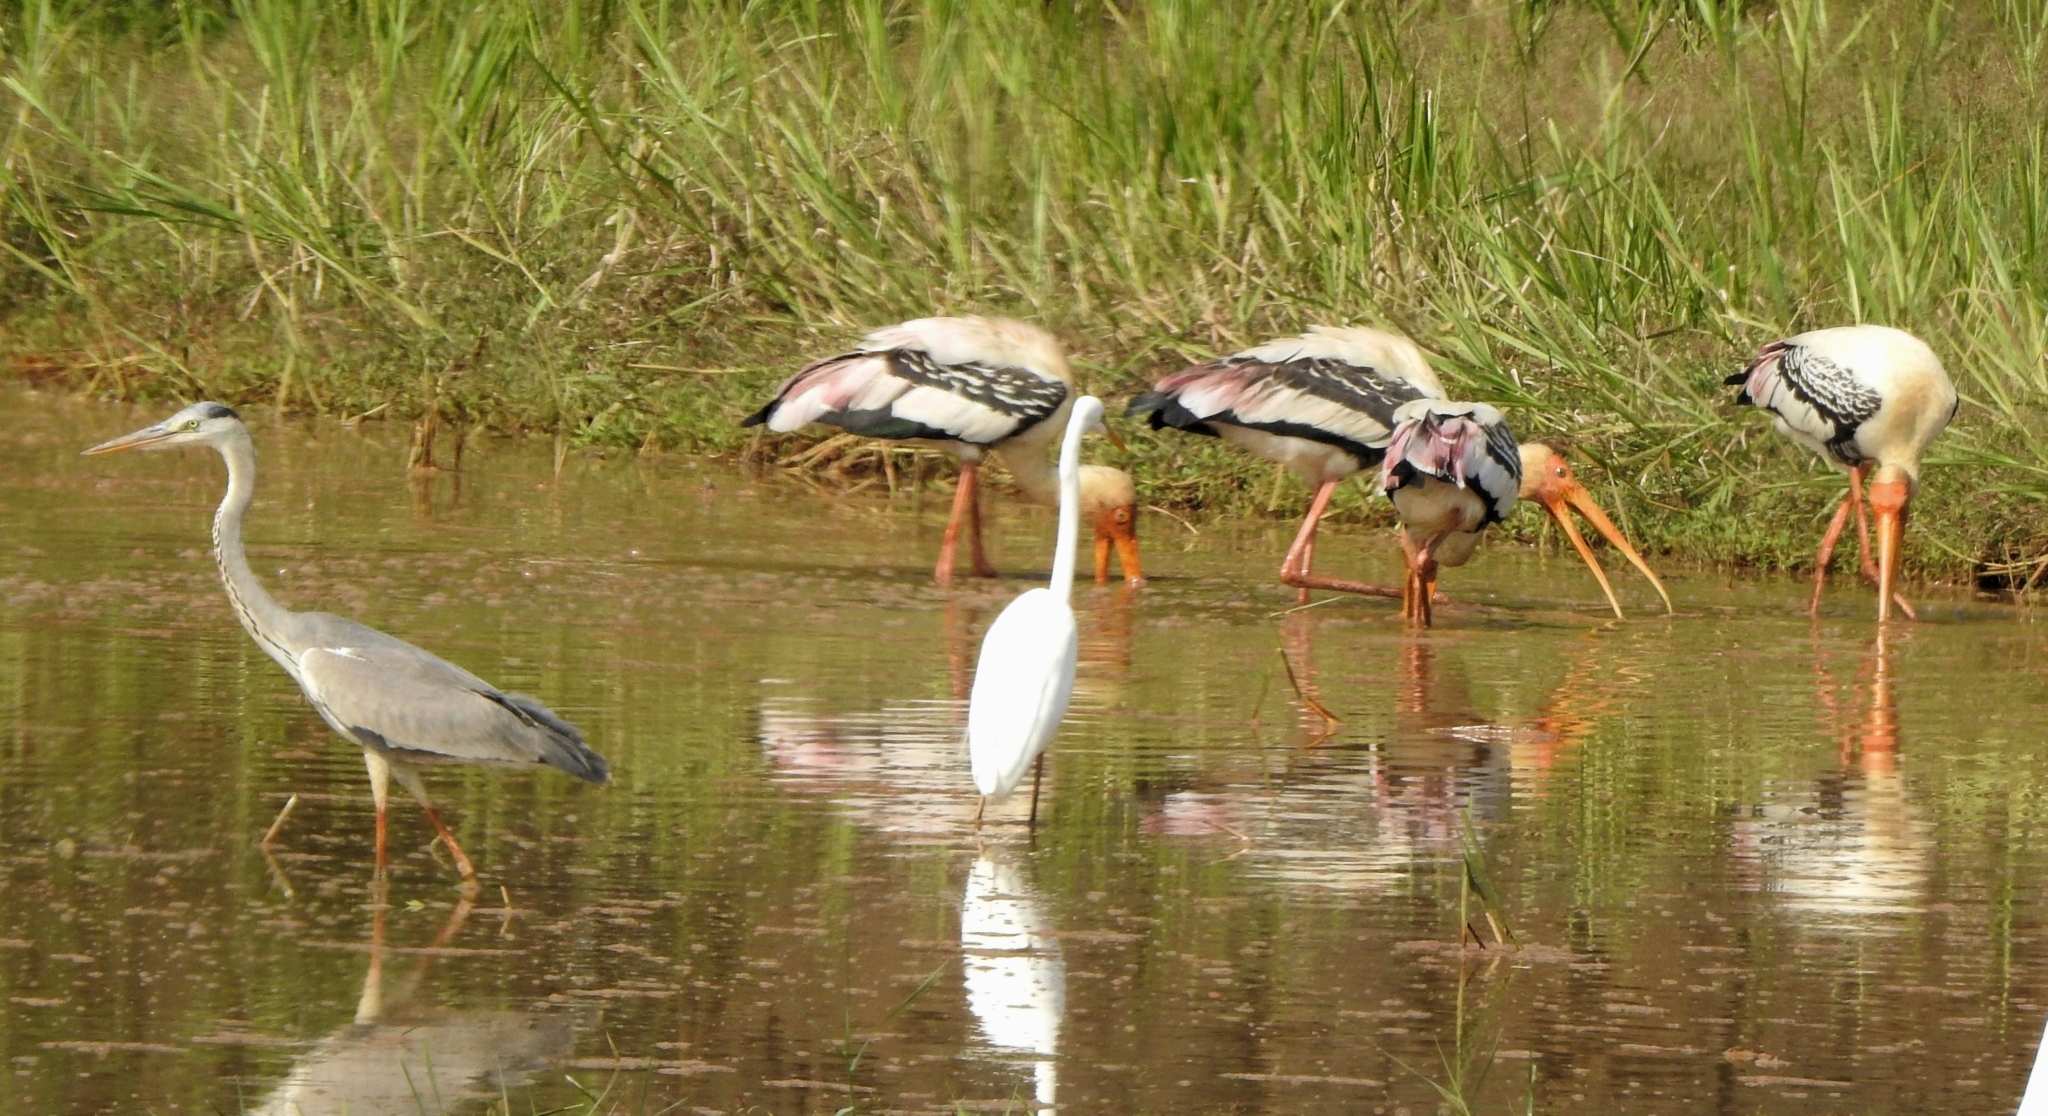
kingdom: Animalia
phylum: Chordata
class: Aves
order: Pelecaniformes
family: Ardeidae
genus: Ardea
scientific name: Ardea cinerea
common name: Grey heron
